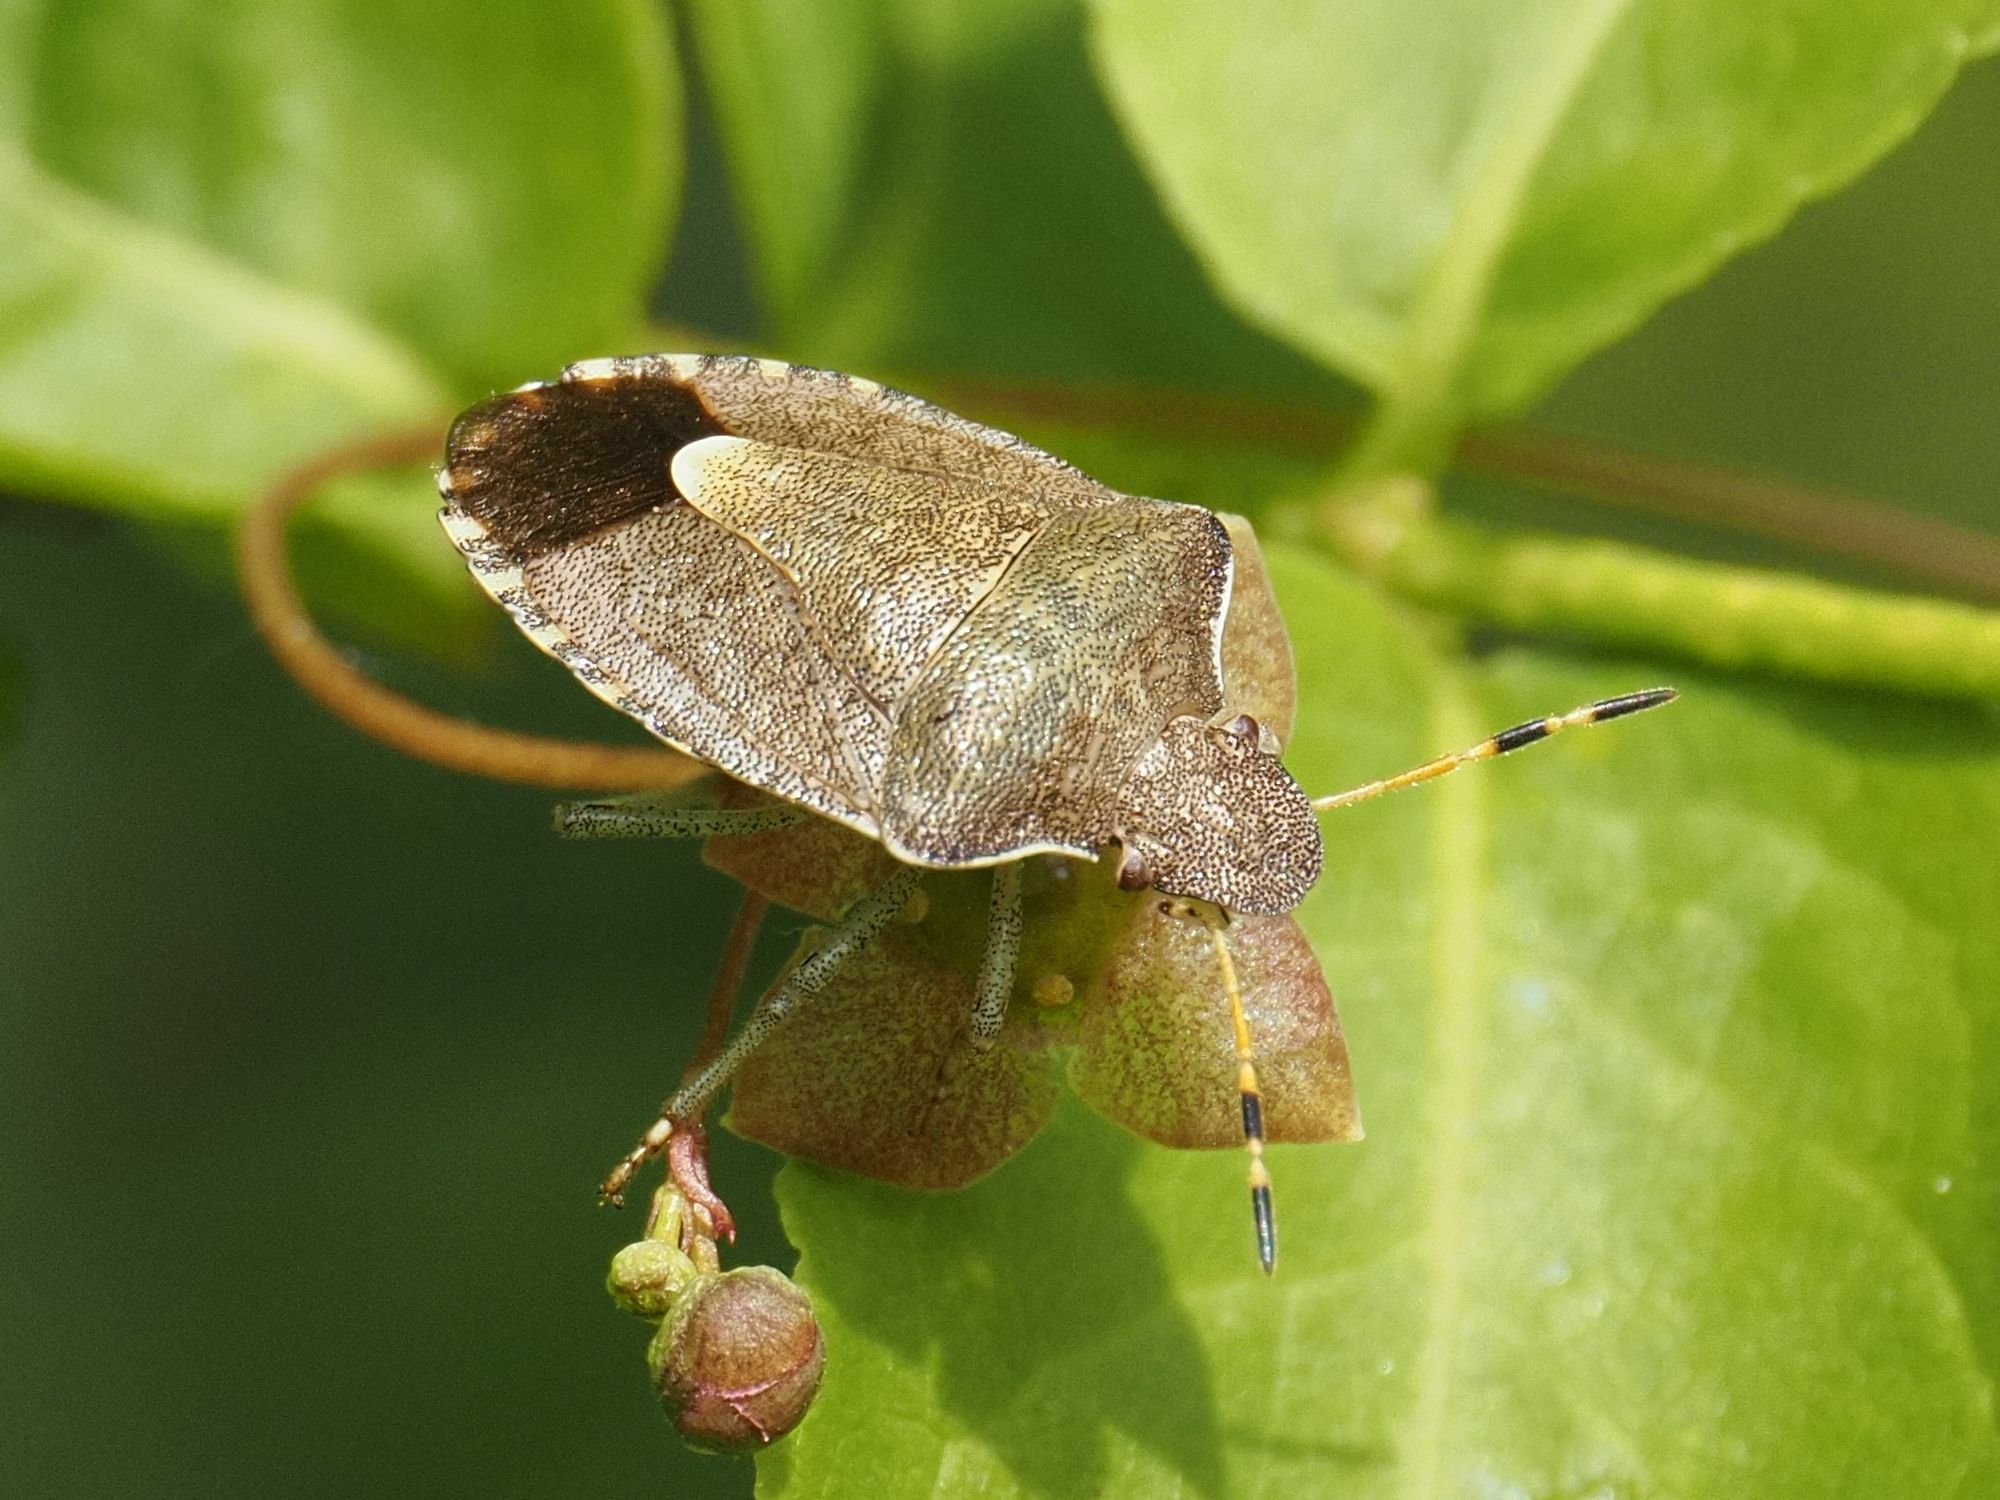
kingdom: Animalia
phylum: Arthropoda
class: Insecta
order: Hemiptera
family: Pentatomidae
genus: Holcostethus
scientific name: Holcostethus strictus
